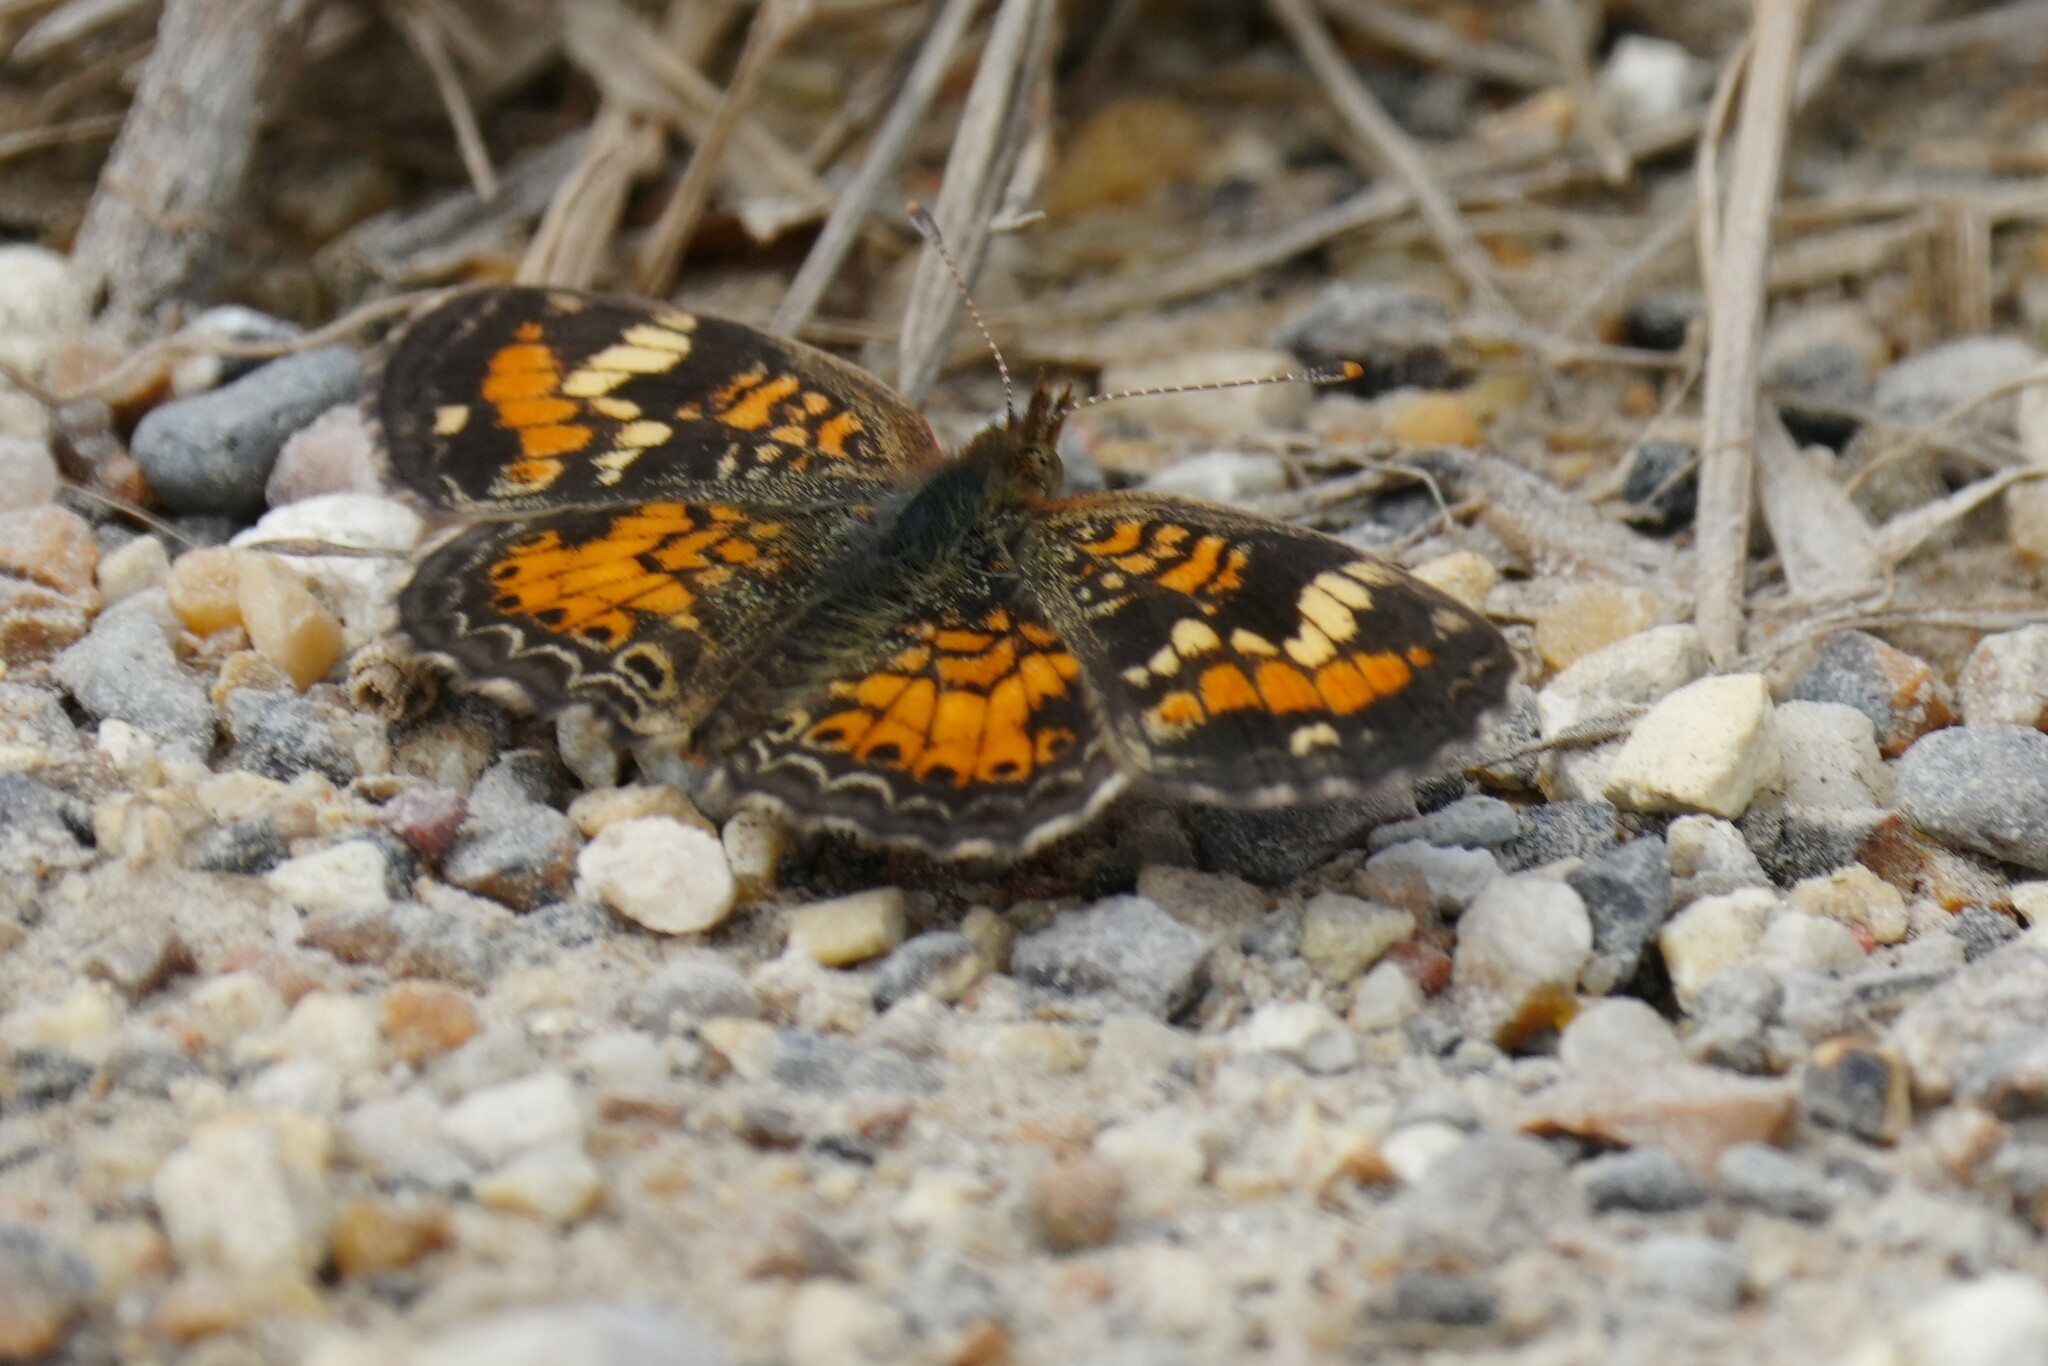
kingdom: Animalia
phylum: Arthropoda
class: Insecta
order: Lepidoptera
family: Nymphalidae
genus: Phyciodes
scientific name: Phyciodes phaon
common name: Phaon crescent
